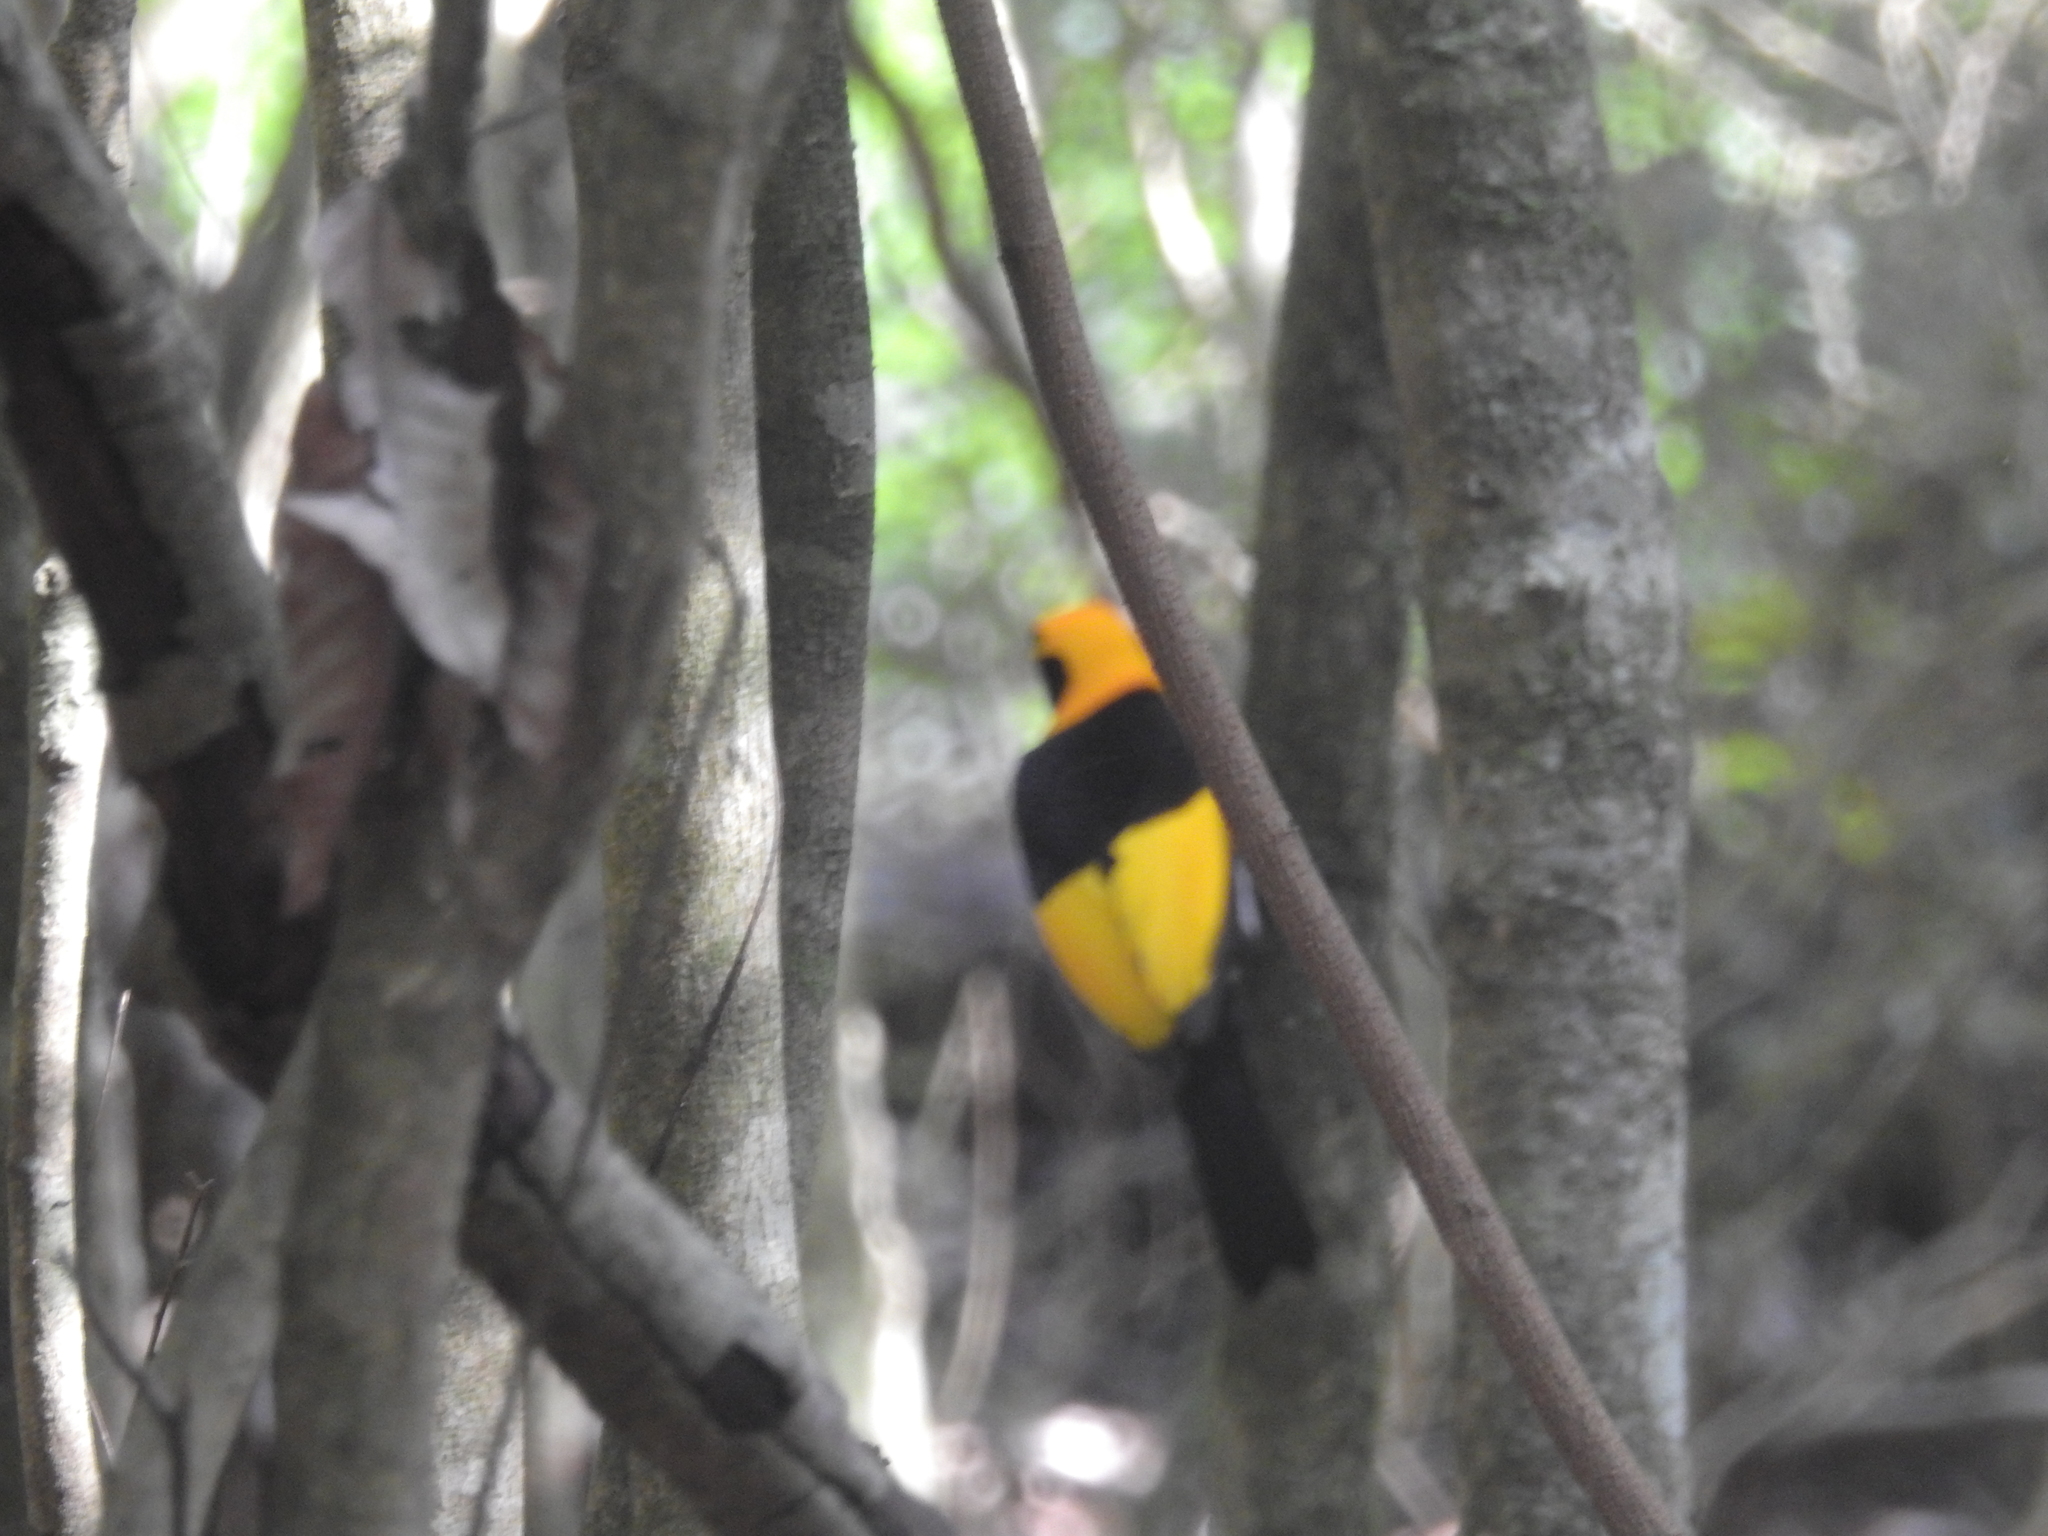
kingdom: Animalia
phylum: Chordata
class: Aves
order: Passeriformes
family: Ptilonorhynchidae
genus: Sericulus
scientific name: Sericulus chrysocephalus
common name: Regent bowerbird
